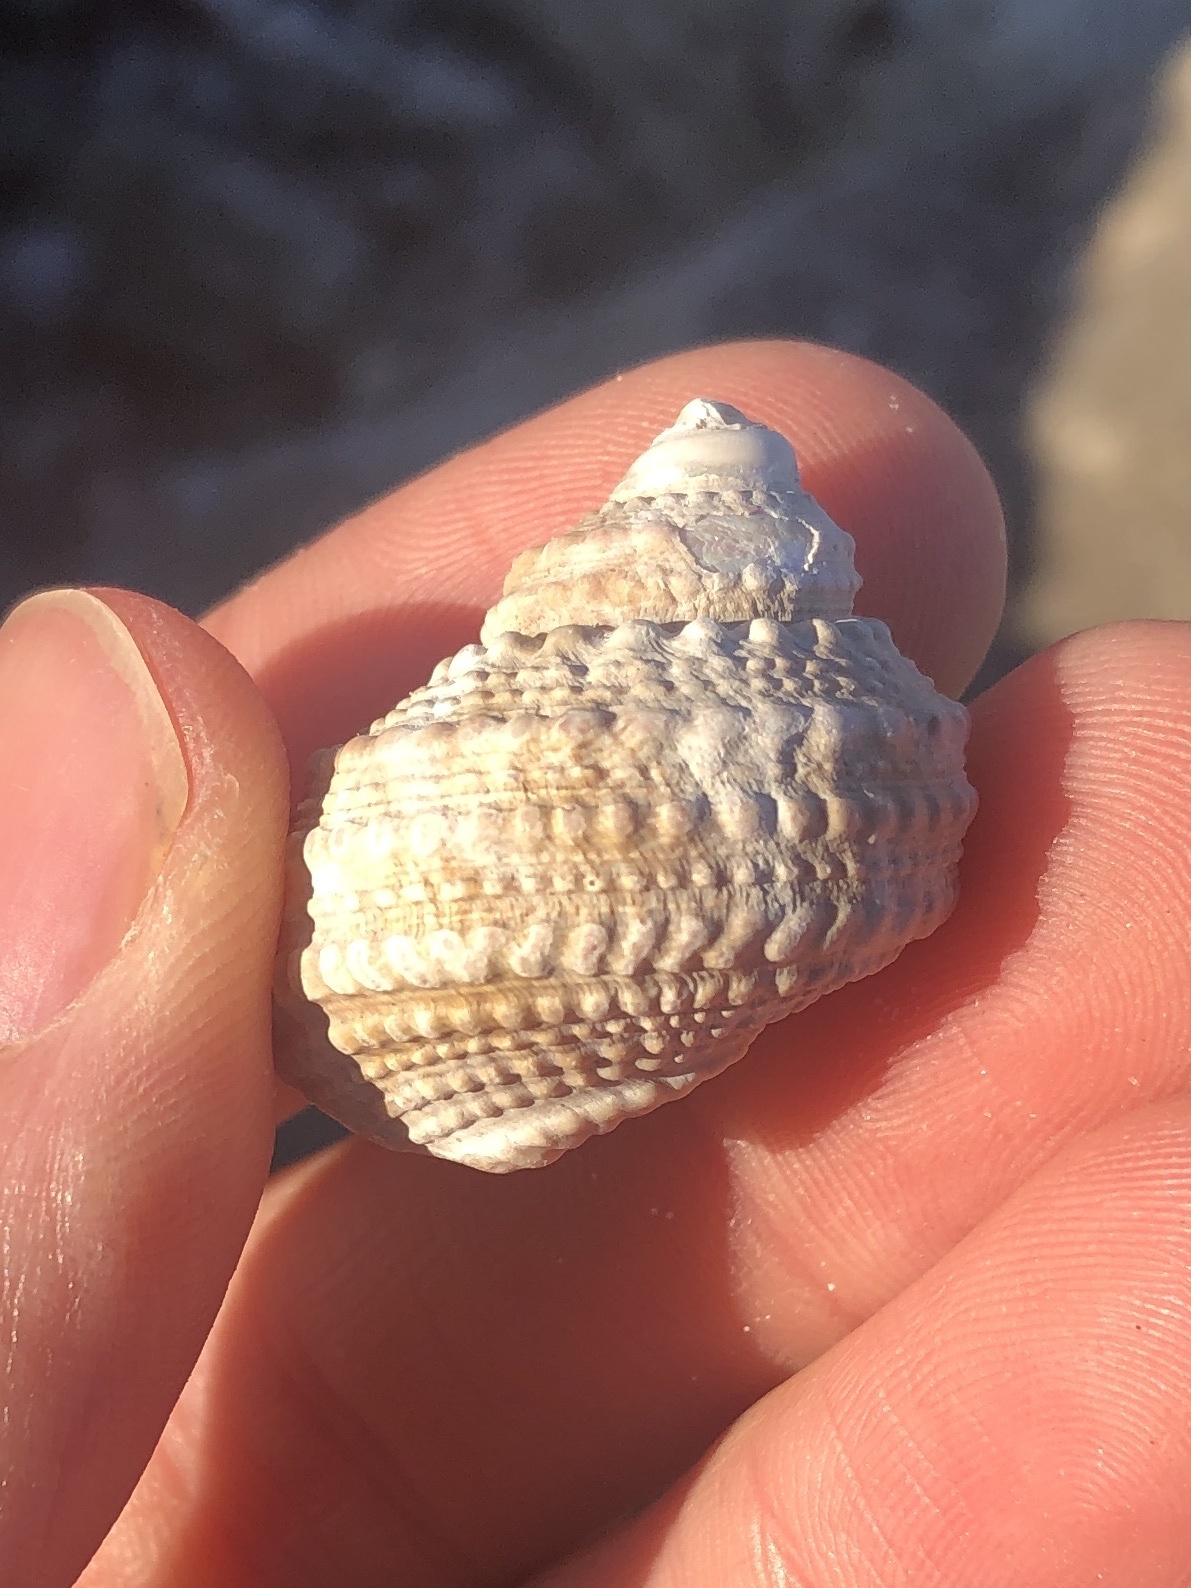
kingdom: Animalia
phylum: Mollusca
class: Gastropoda
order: Trochida
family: Turbinidae
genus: Turbo
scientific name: Turbo castanea
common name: Chestnut turban
